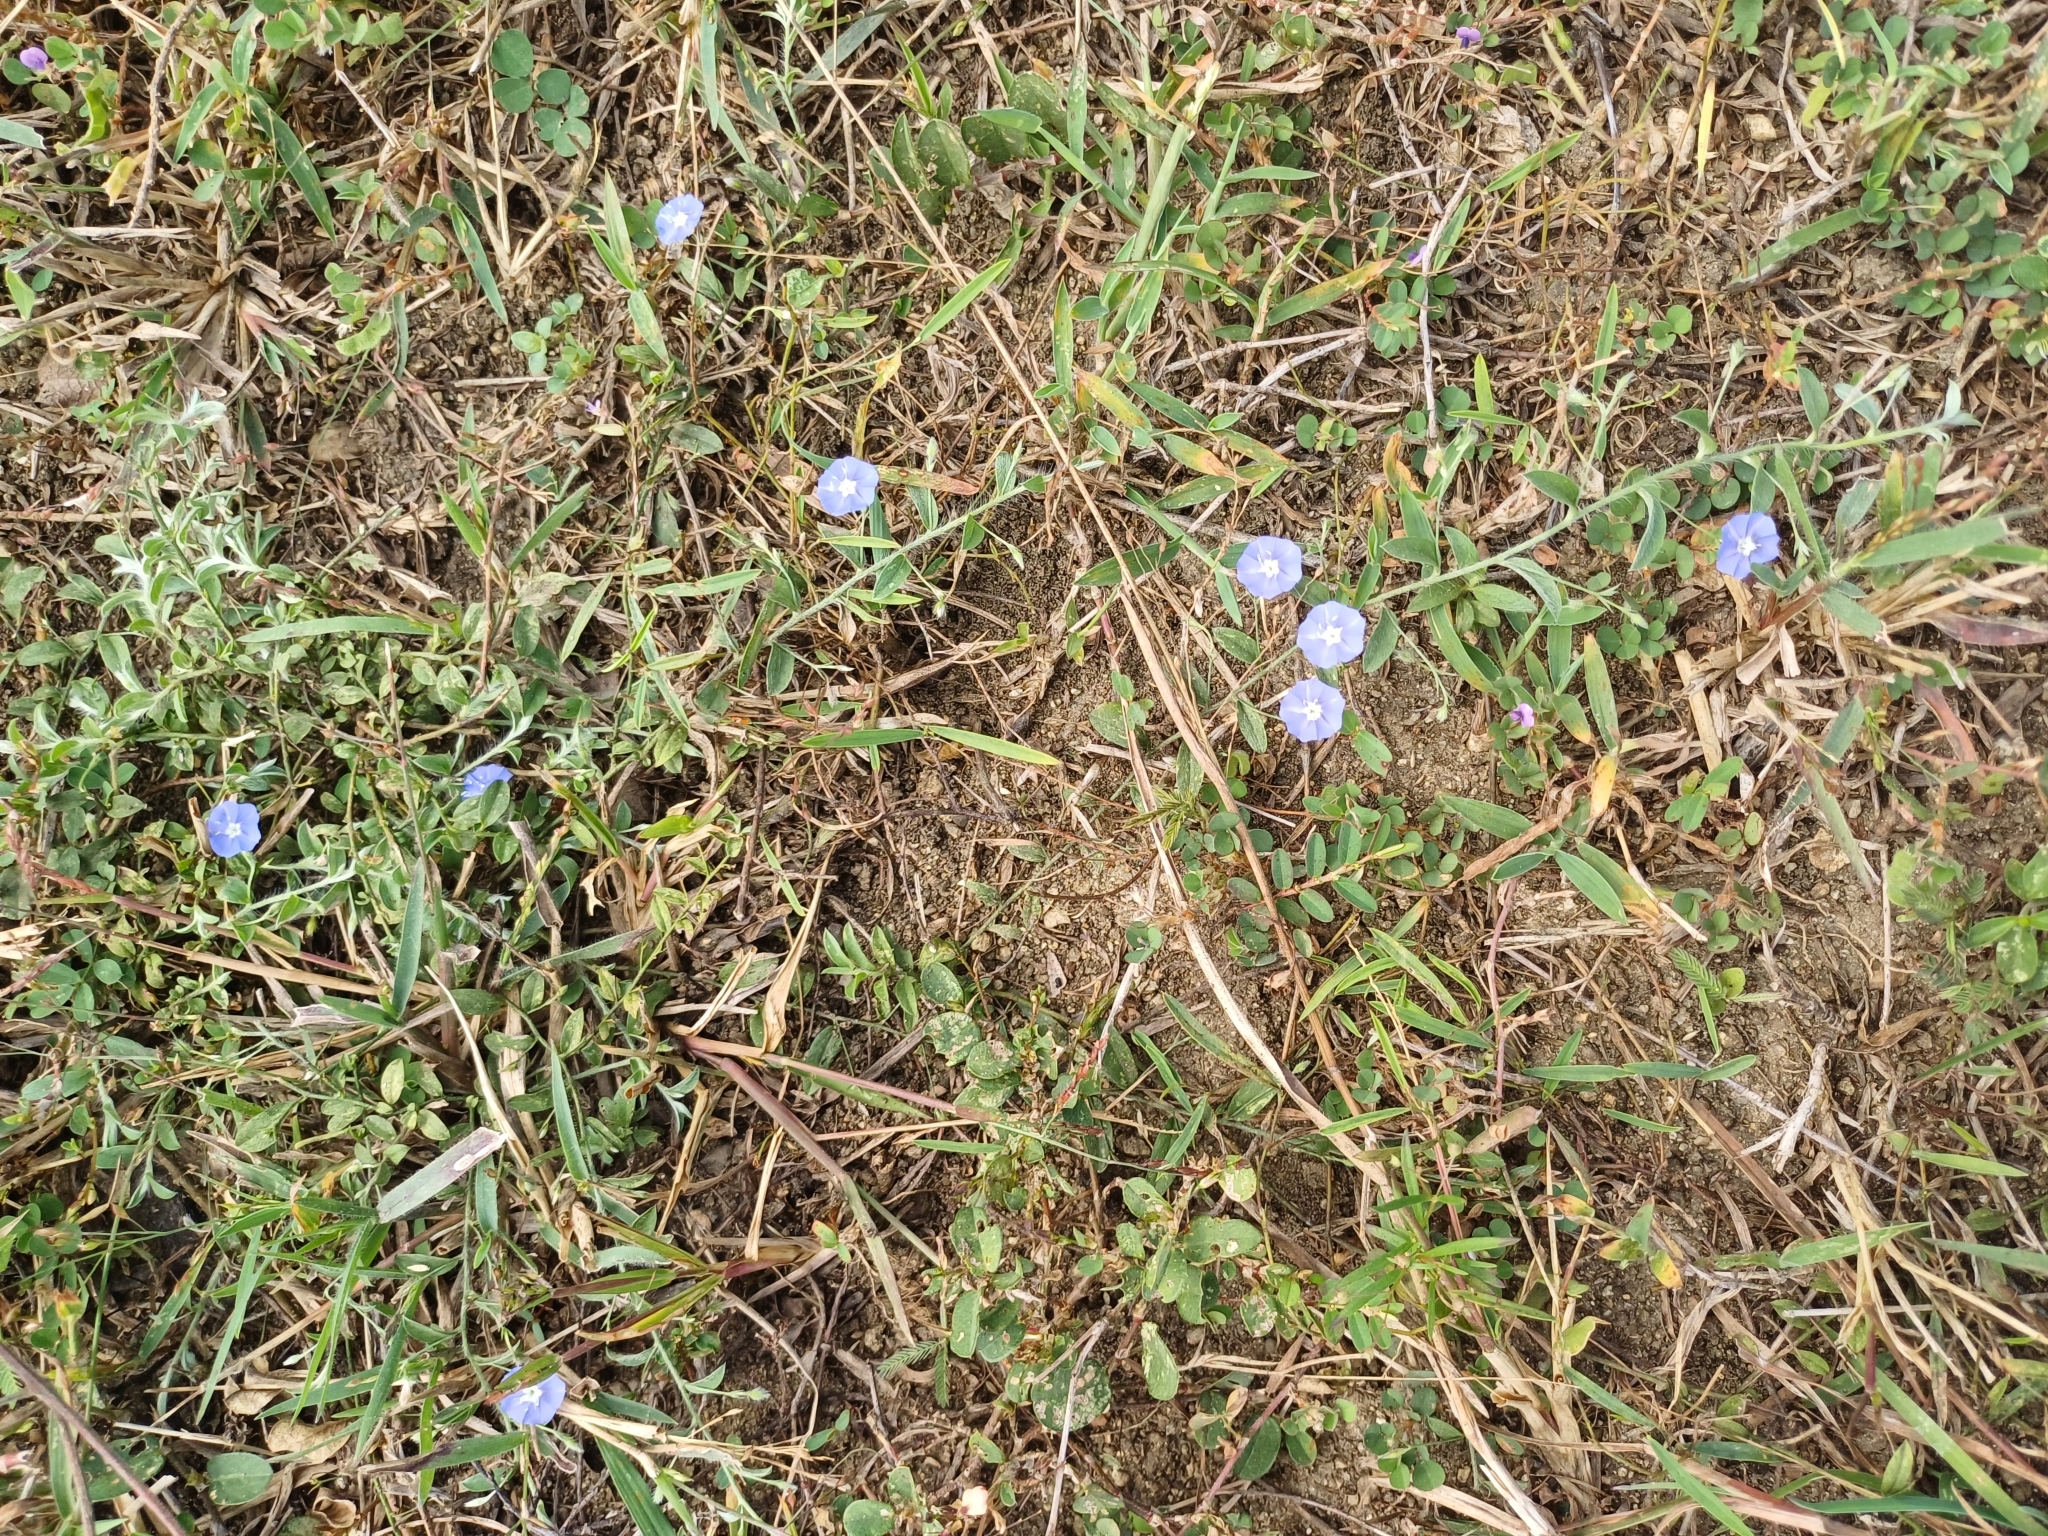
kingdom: Plantae
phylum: Tracheophyta
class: Magnoliopsida
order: Solanales
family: Convolvulaceae
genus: Evolvulus
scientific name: Evolvulus alsinoides
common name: Slender dwarf morning-glory
